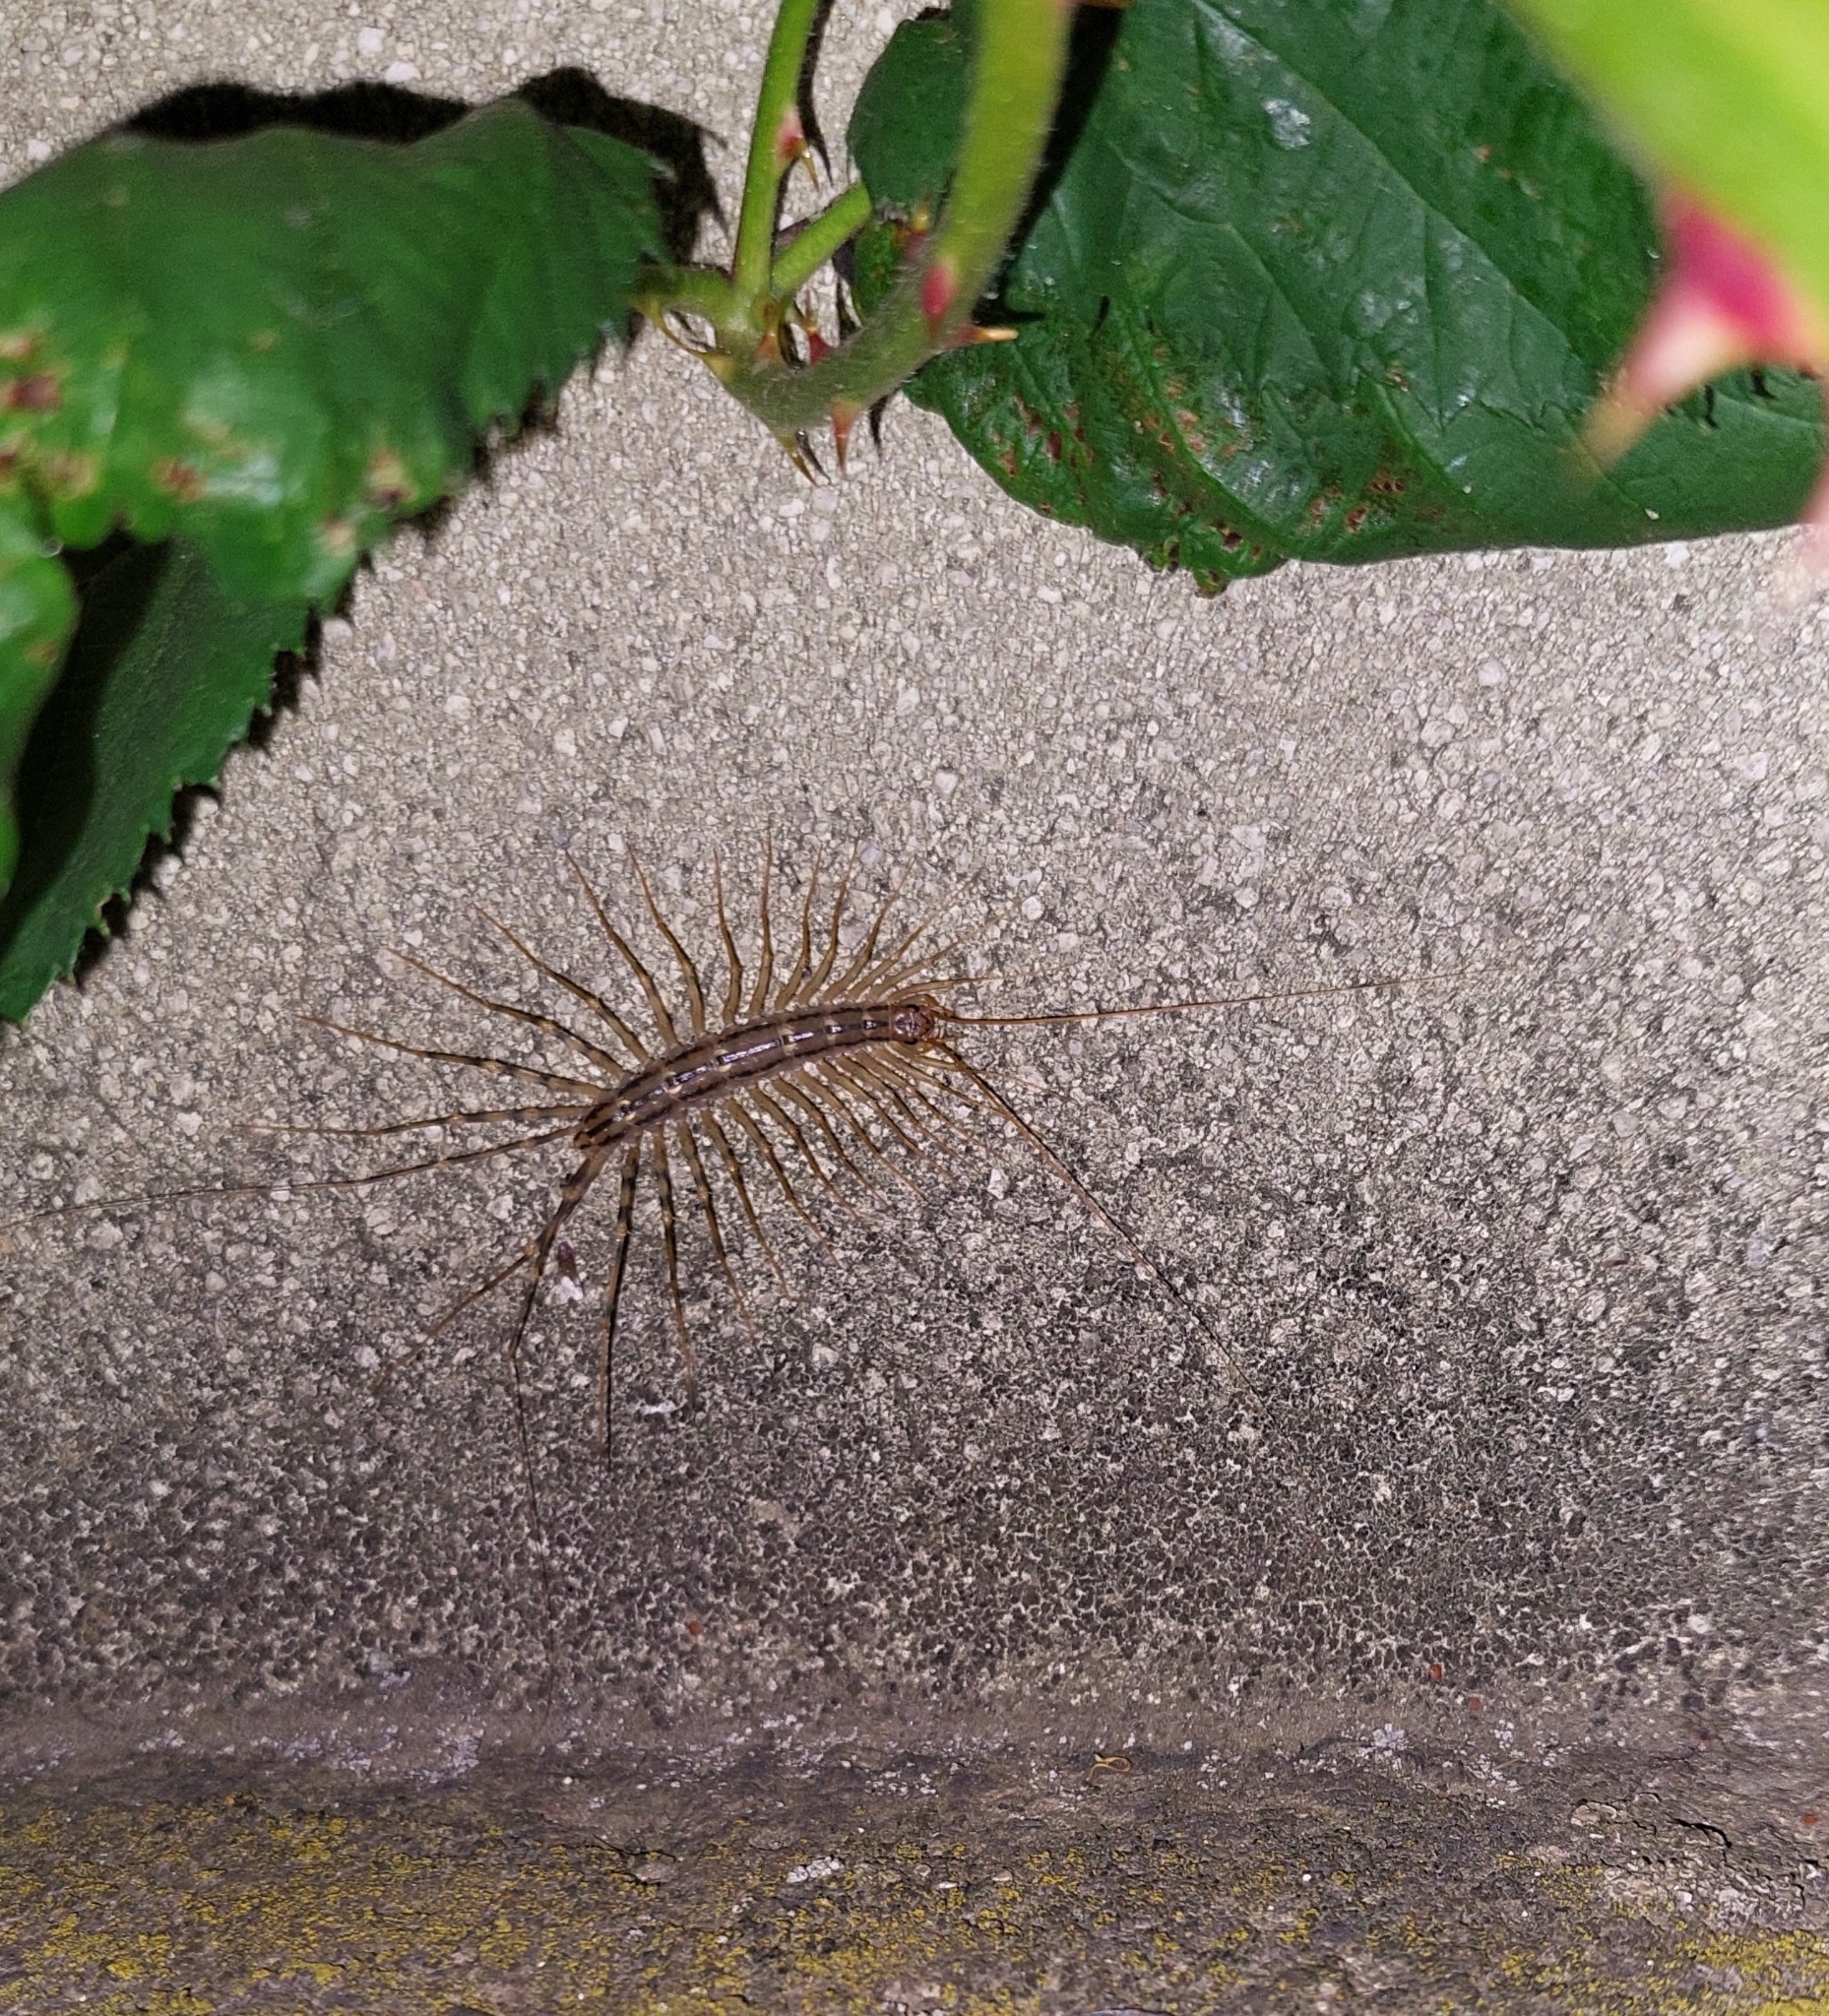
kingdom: Animalia
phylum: Arthropoda
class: Chilopoda
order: Scutigeromorpha
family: Scutigeridae
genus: Scutigera
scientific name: Scutigera coleoptrata
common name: House centipede
